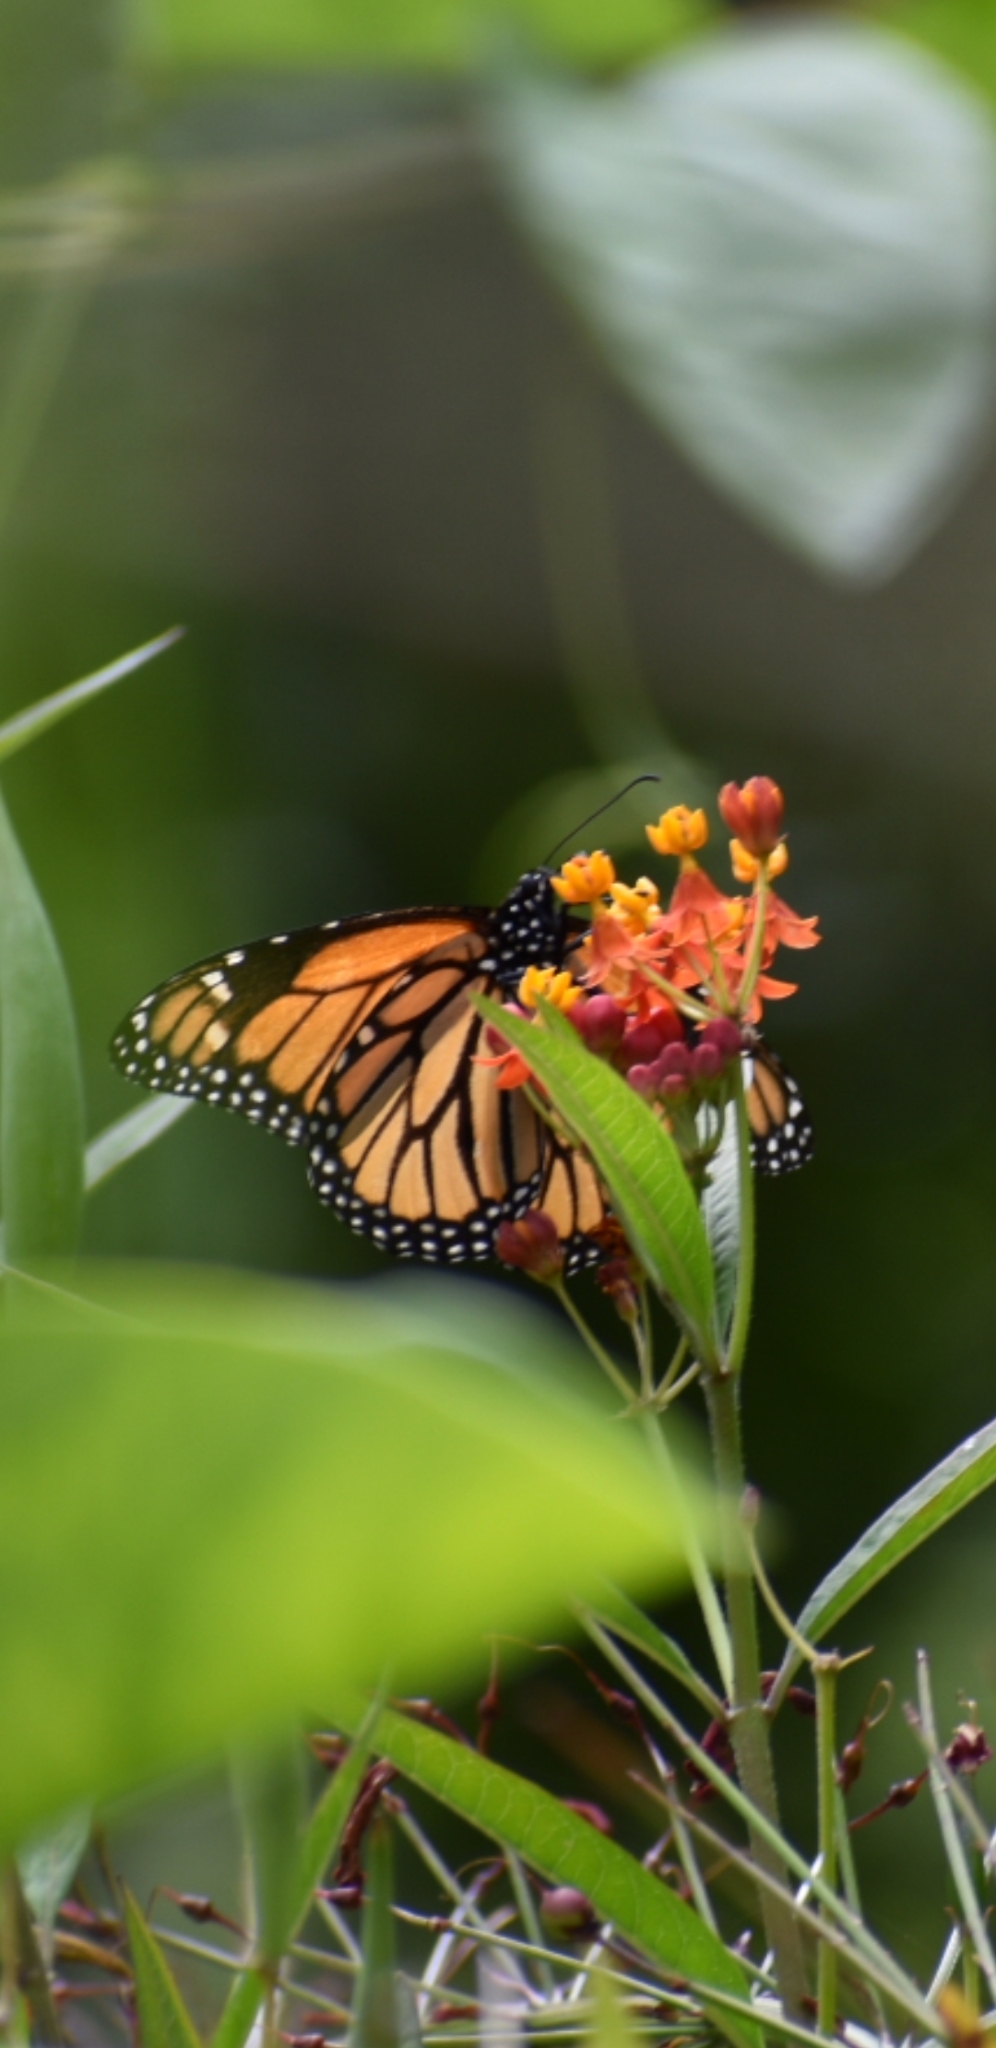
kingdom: Animalia
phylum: Arthropoda
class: Insecta
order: Lepidoptera
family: Nymphalidae
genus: Danaus
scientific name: Danaus plexippus
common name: Monarch
